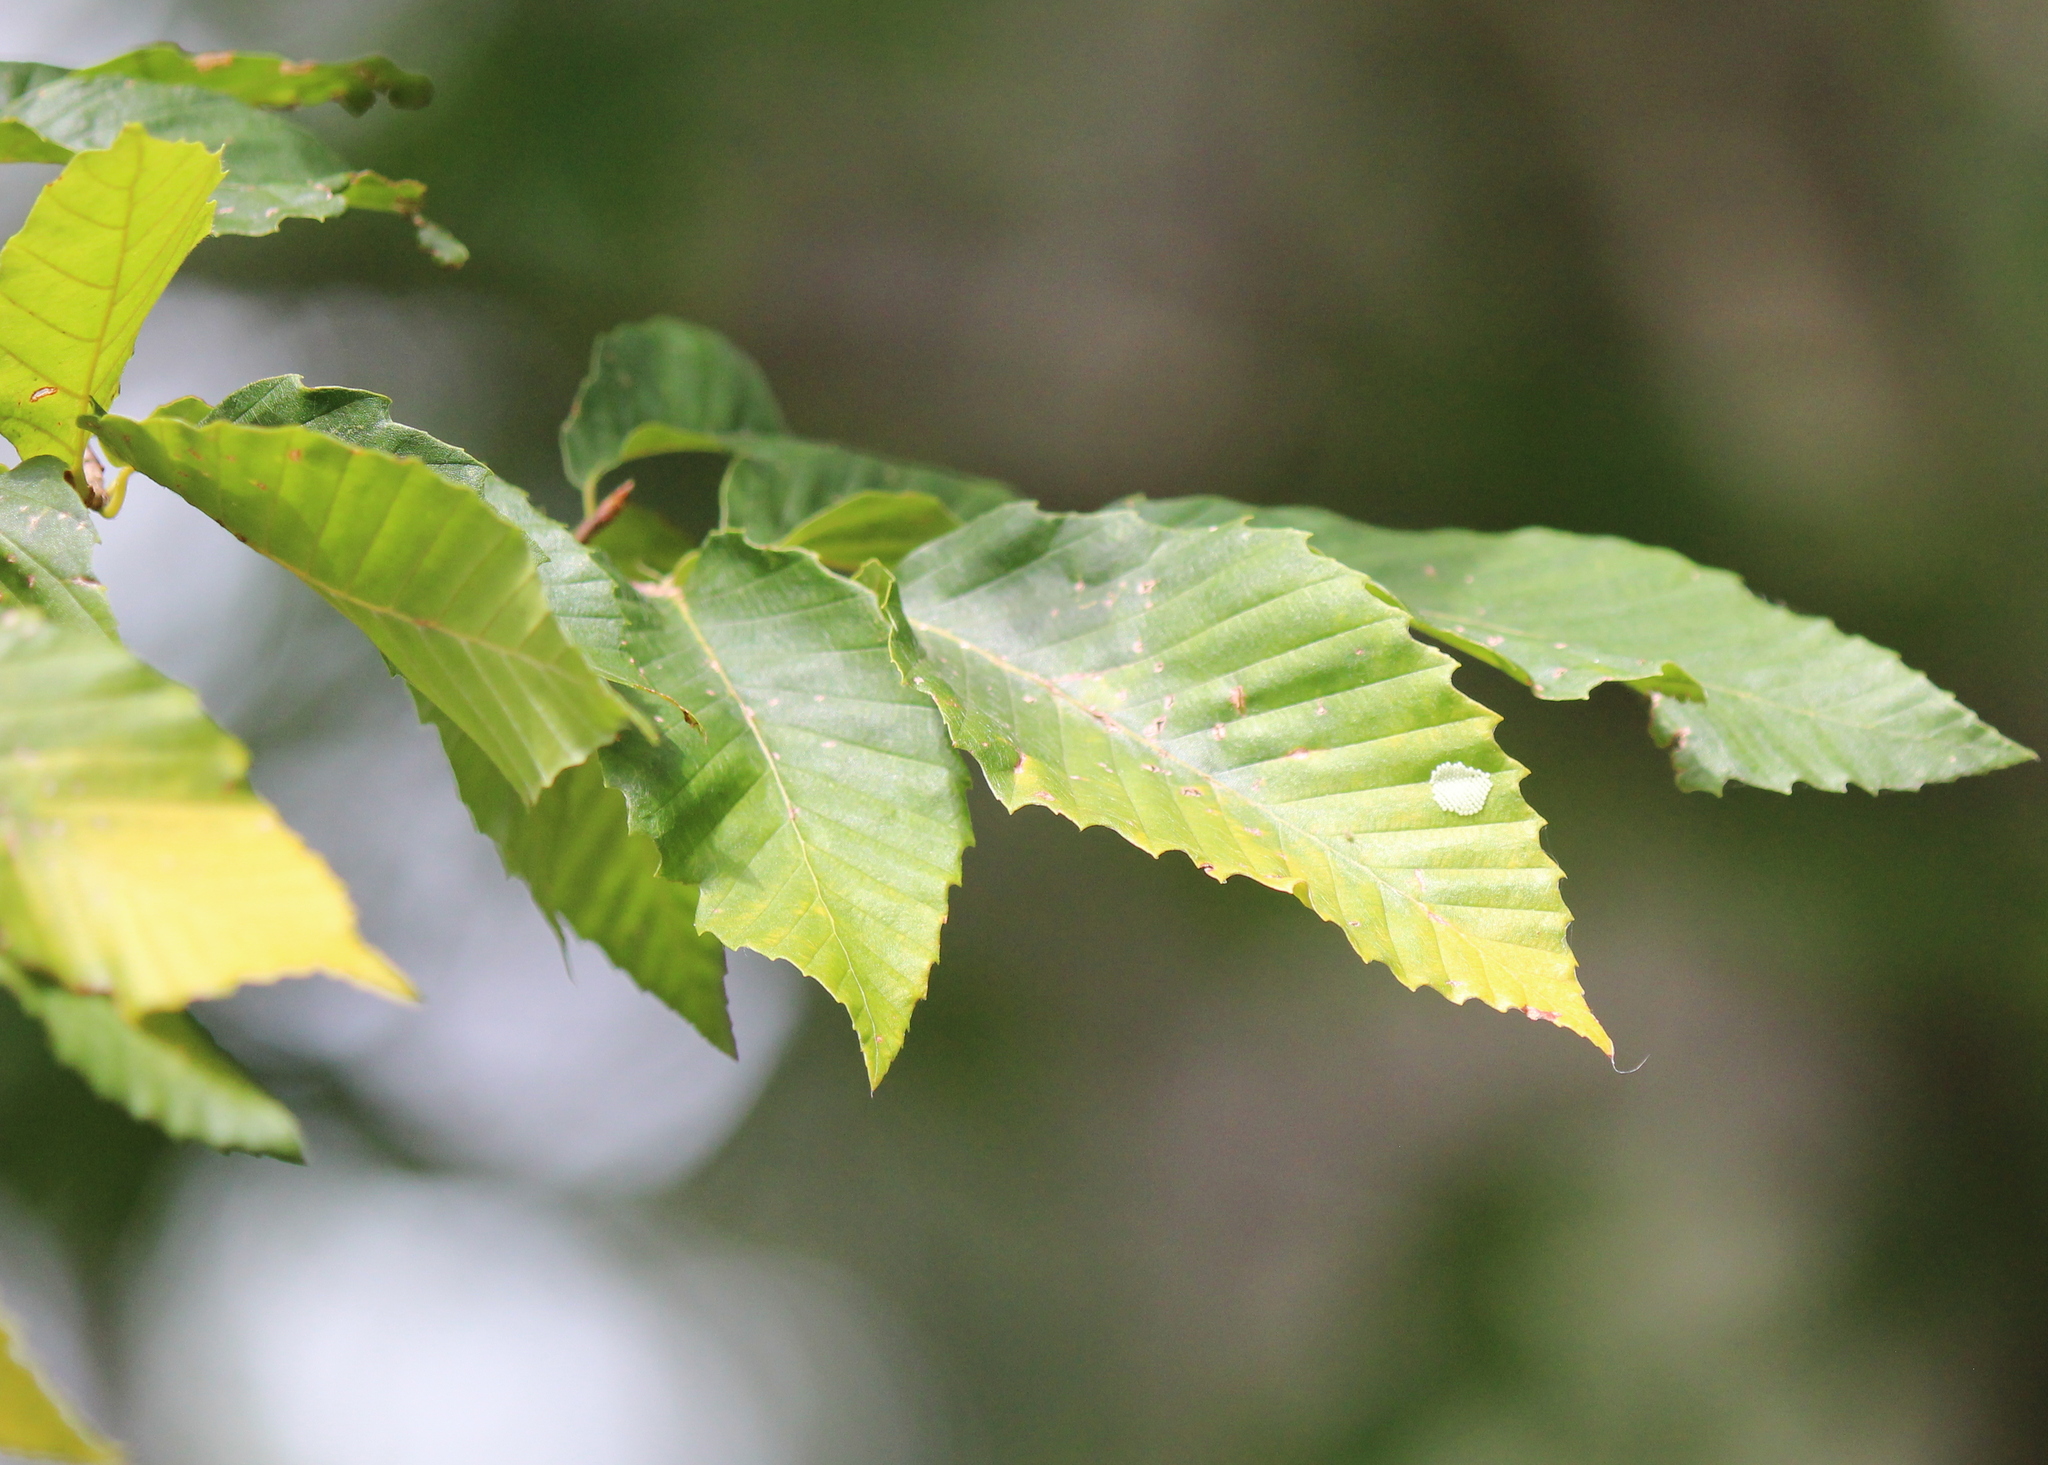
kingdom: Plantae
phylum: Tracheophyta
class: Magnoliopsida
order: Fagales
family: Fagaceae
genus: Fagus
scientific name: Fagus grandifolia
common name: American beech
